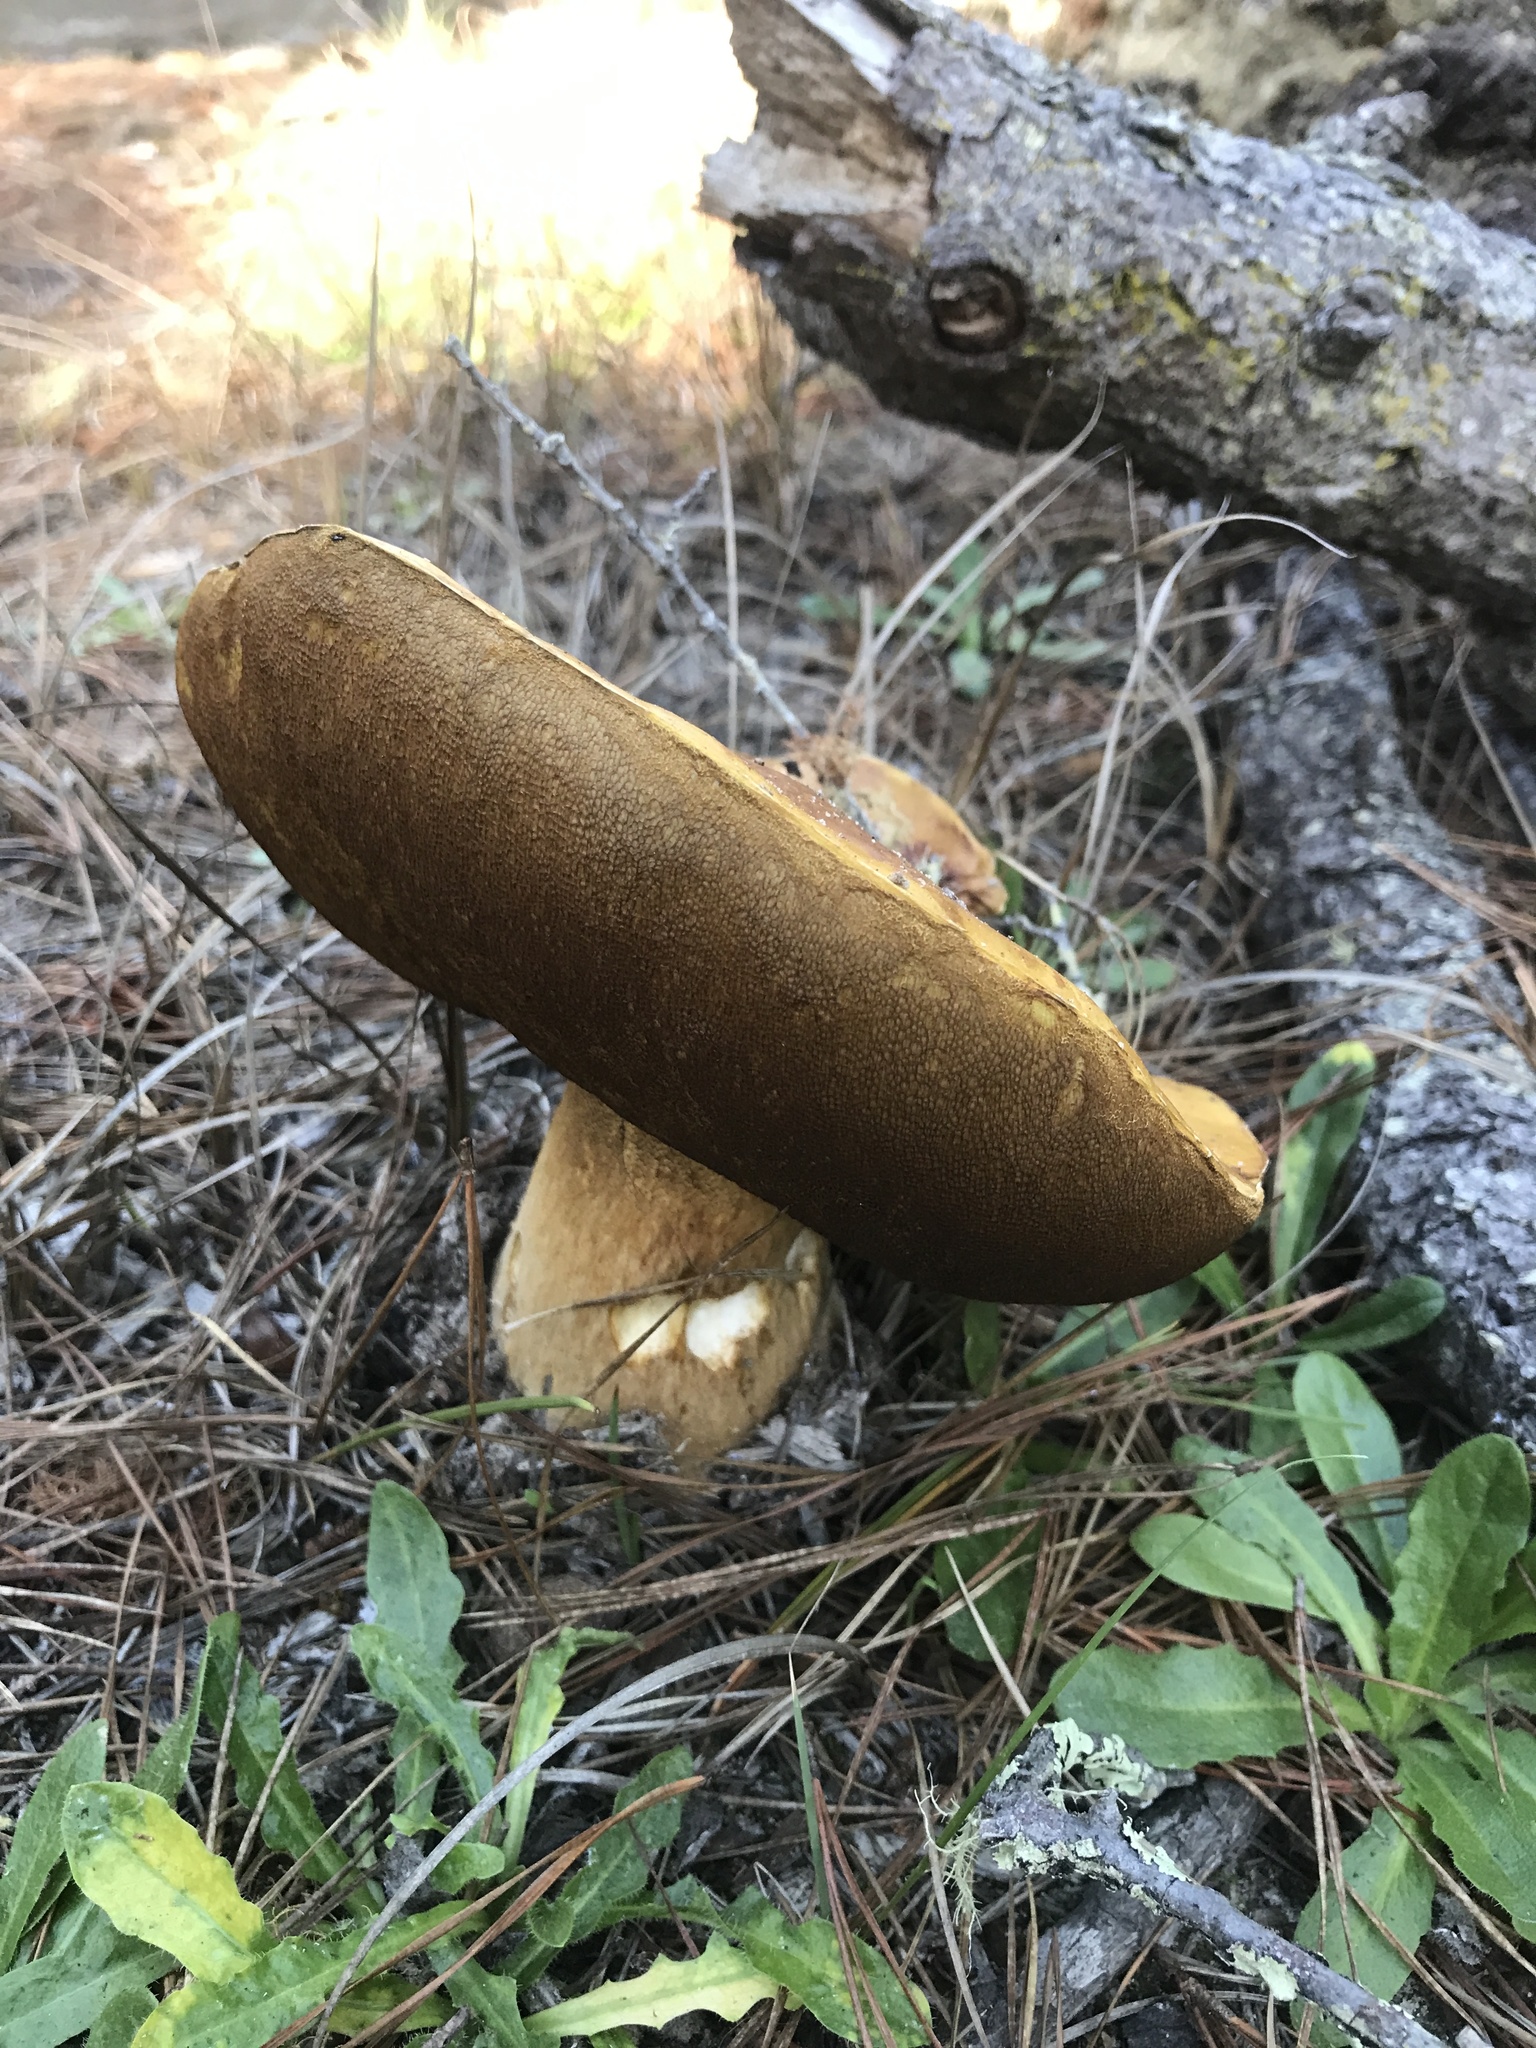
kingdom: Fungi
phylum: Basidiomycota
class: Agaricomycetes
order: Boletales
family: Boletaceae
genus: Boletus
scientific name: Boletus edulis
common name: Cep
